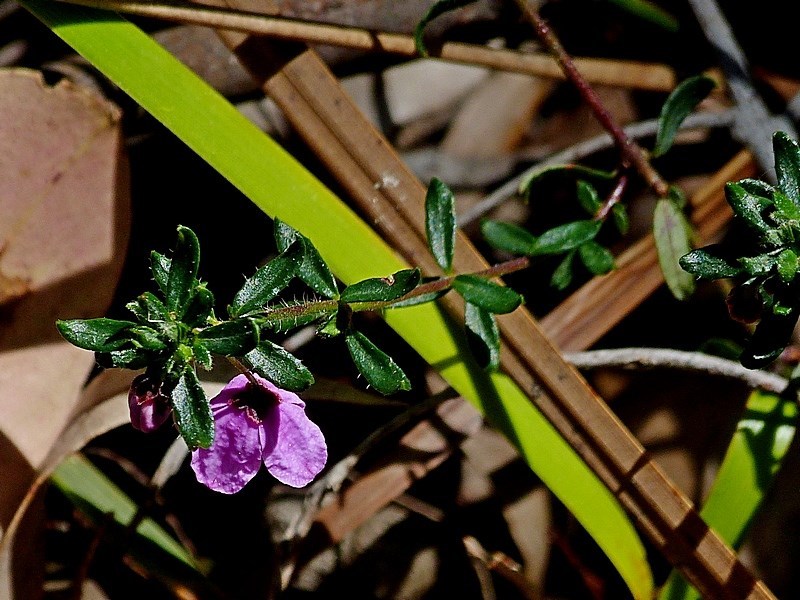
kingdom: Plantae
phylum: Tracheophyta
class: Magnoliopsida
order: Oxalidales
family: Elaeocarpaceae
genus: Tetratheca
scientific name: Tetratheca pilosa
